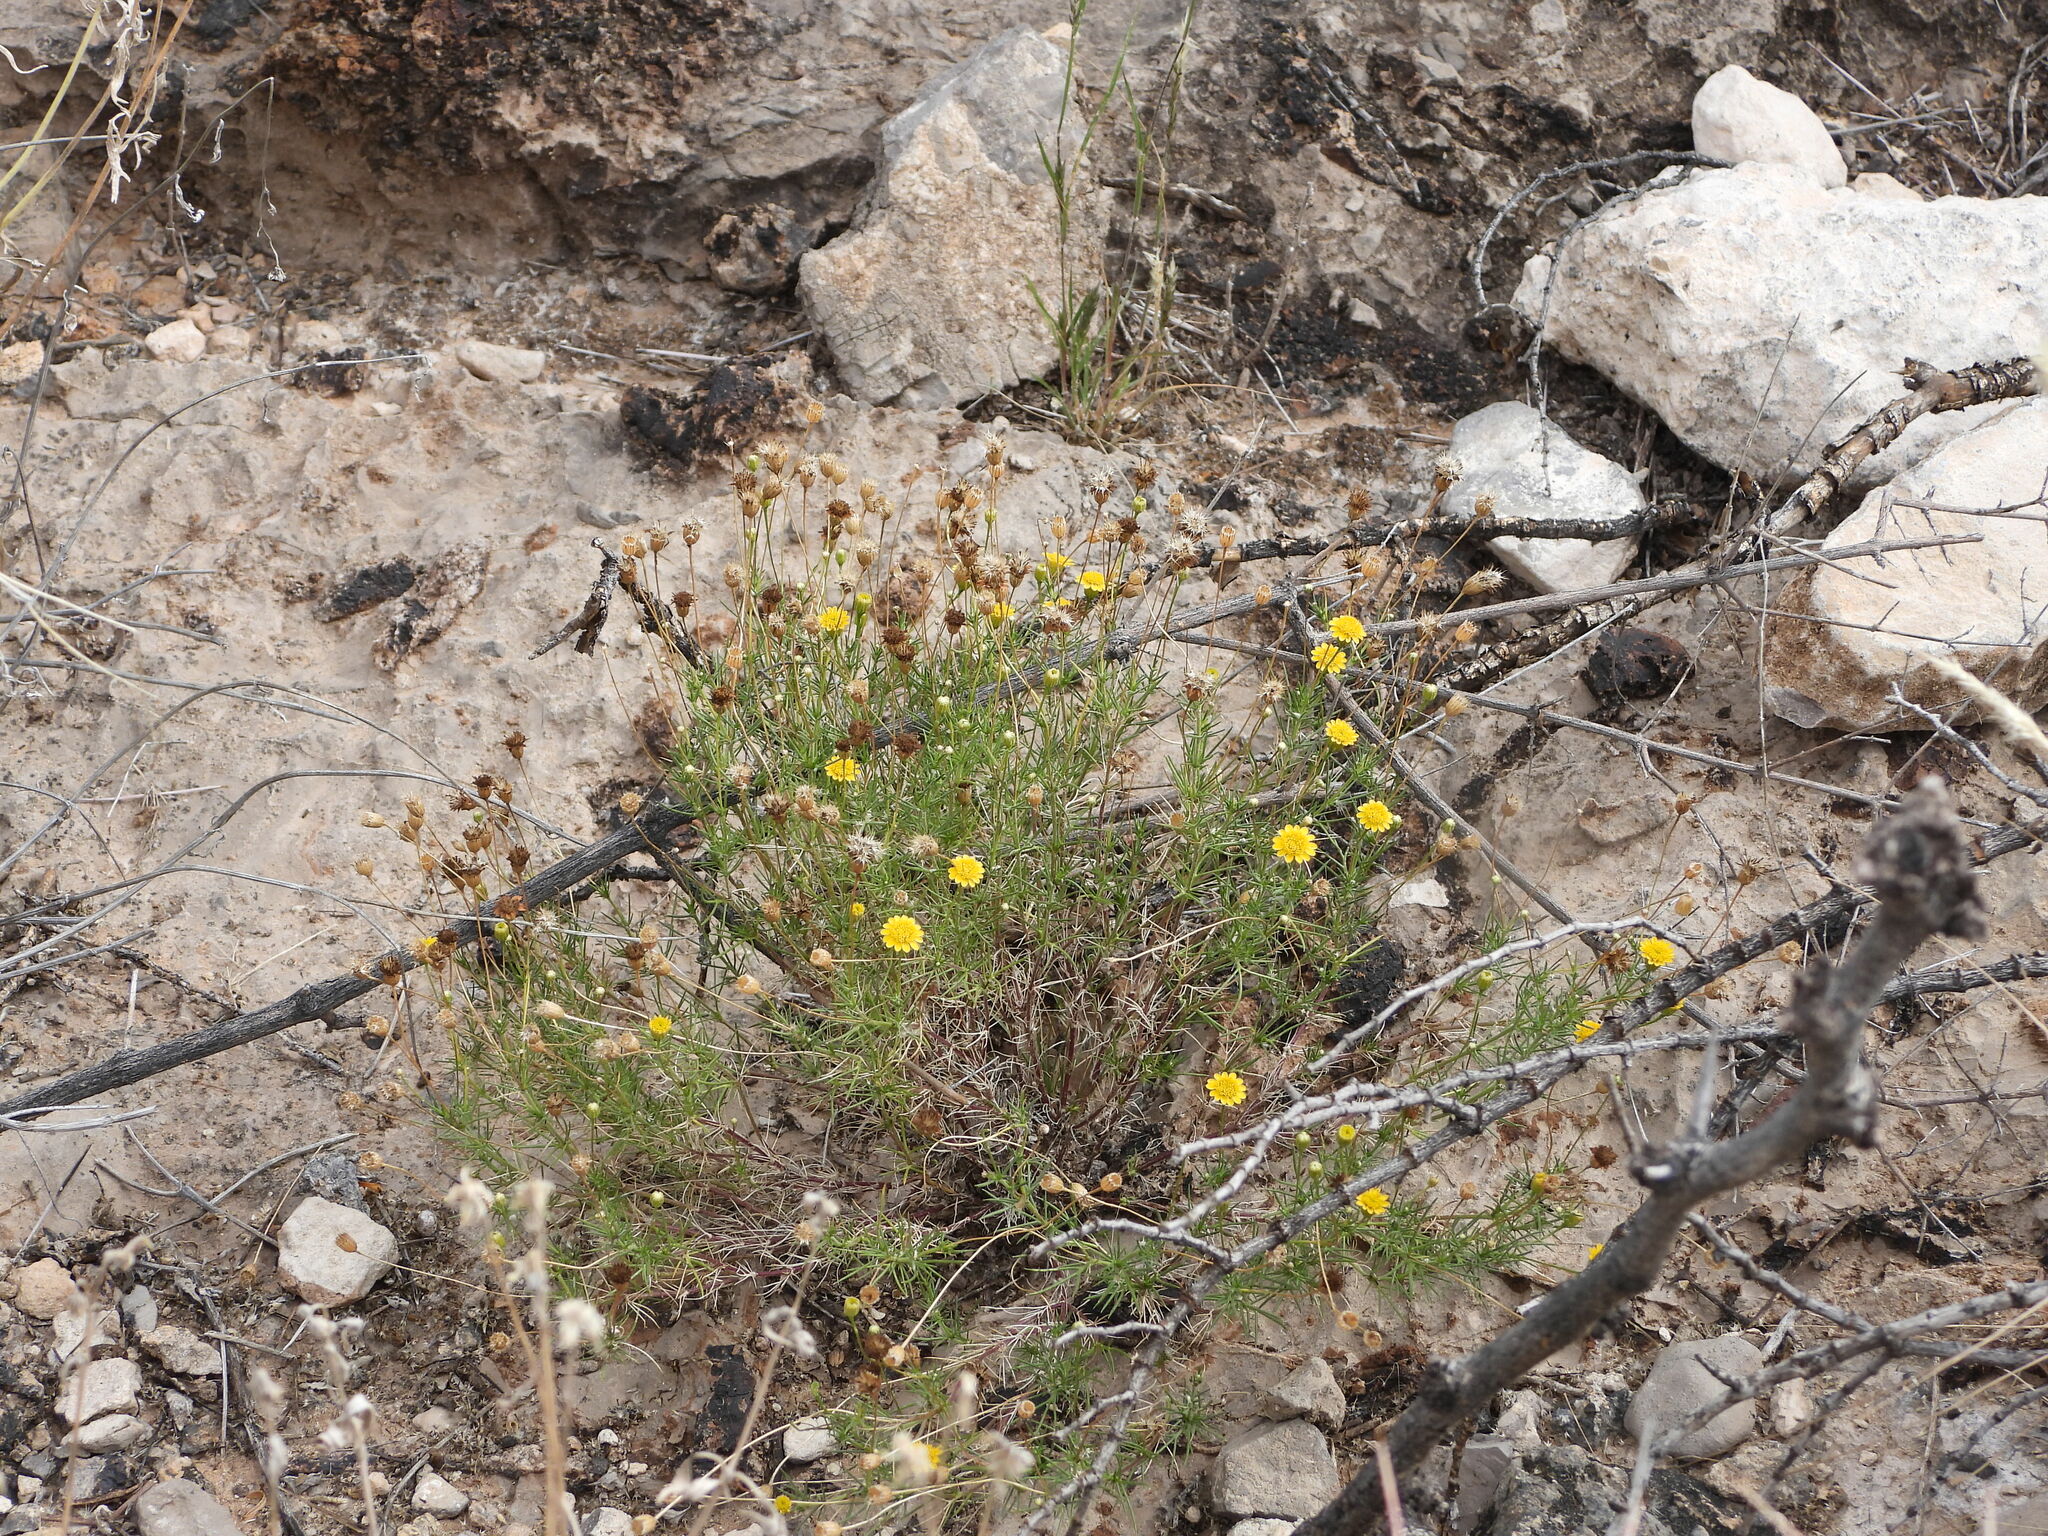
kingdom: Plantae
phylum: Tracheophyta
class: Magnoliopsida
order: Asterales
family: Asteraceae
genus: Thymophylla
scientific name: Thymophylla pentachaeta
